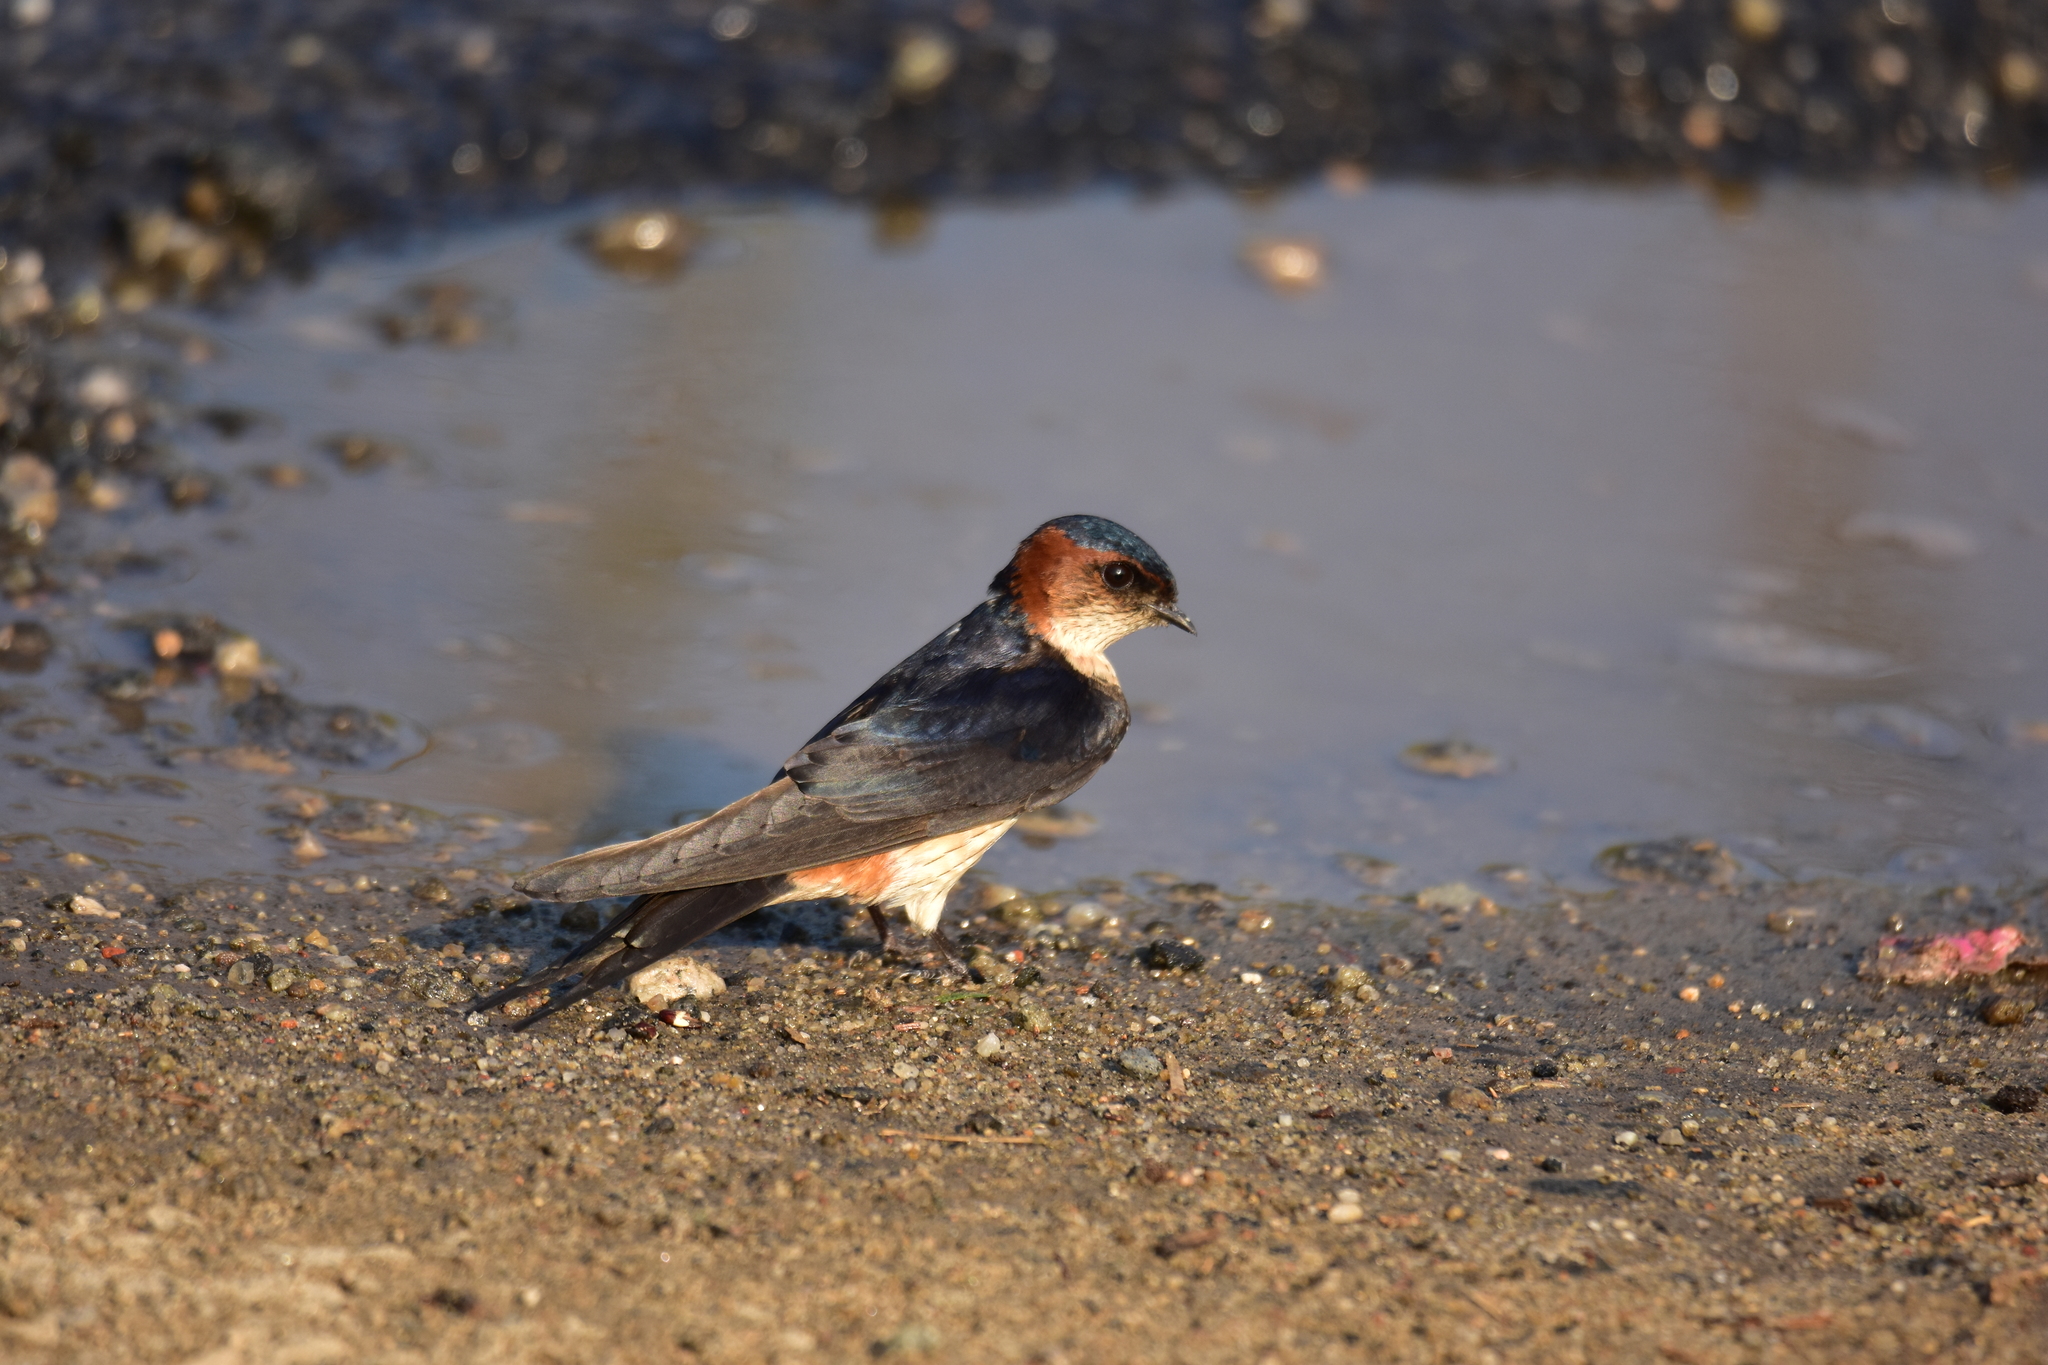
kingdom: Animalia
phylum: Chordata
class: Aves
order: Passeriformes
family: Hirundinidae
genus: Cecropis
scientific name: Cecropis daurica
